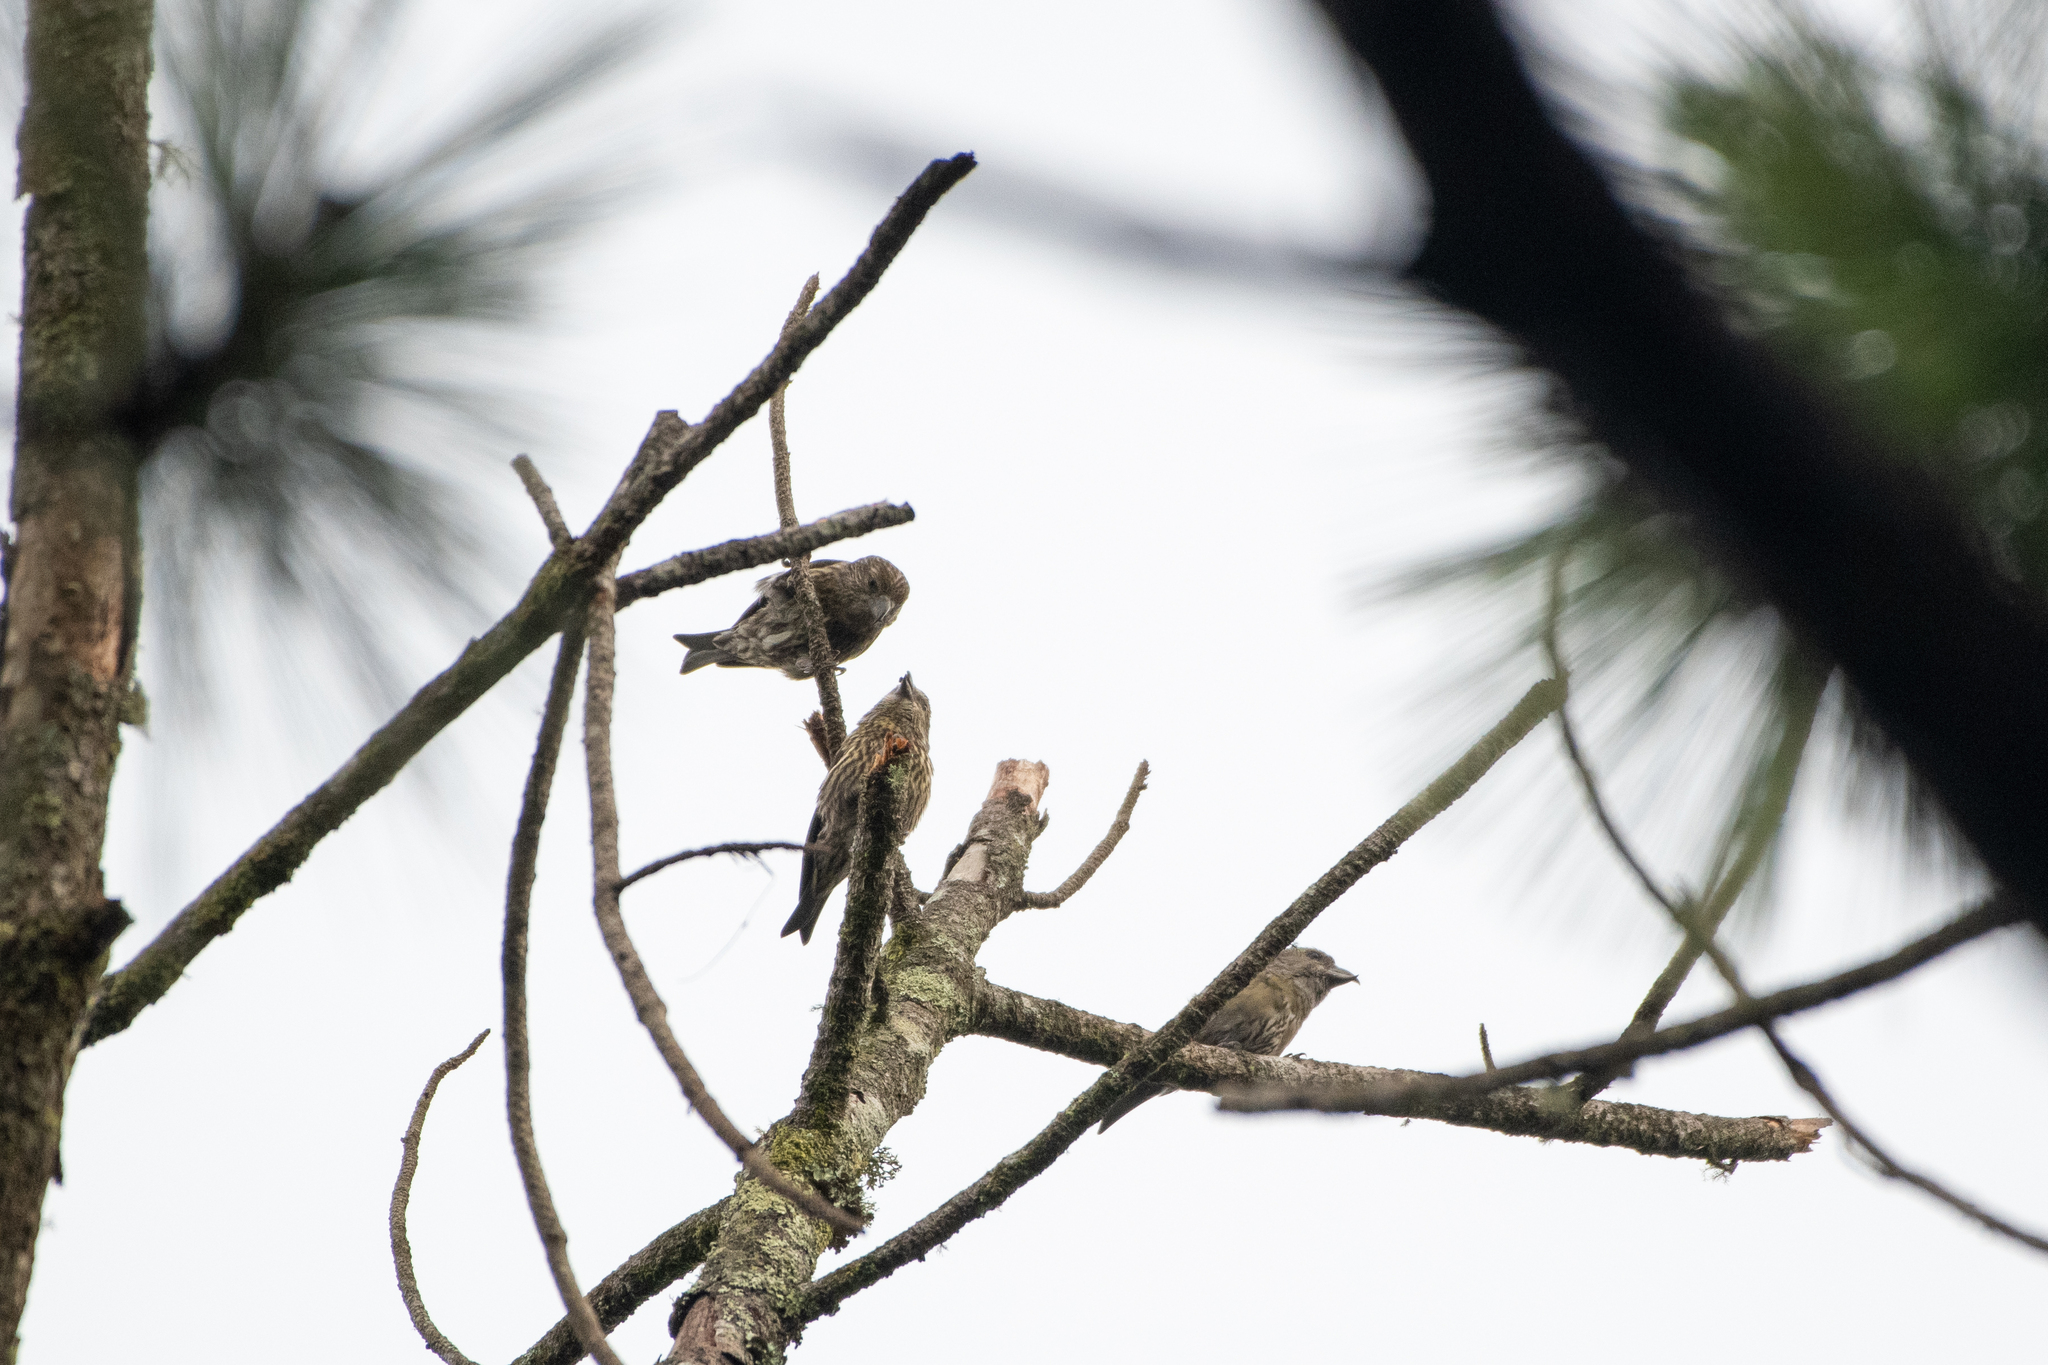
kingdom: Animalia
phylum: Chordata
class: Aves
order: Passeriformes
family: Fringillidae
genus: Loxia
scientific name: Loxia curvirostra
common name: Red crossbill
